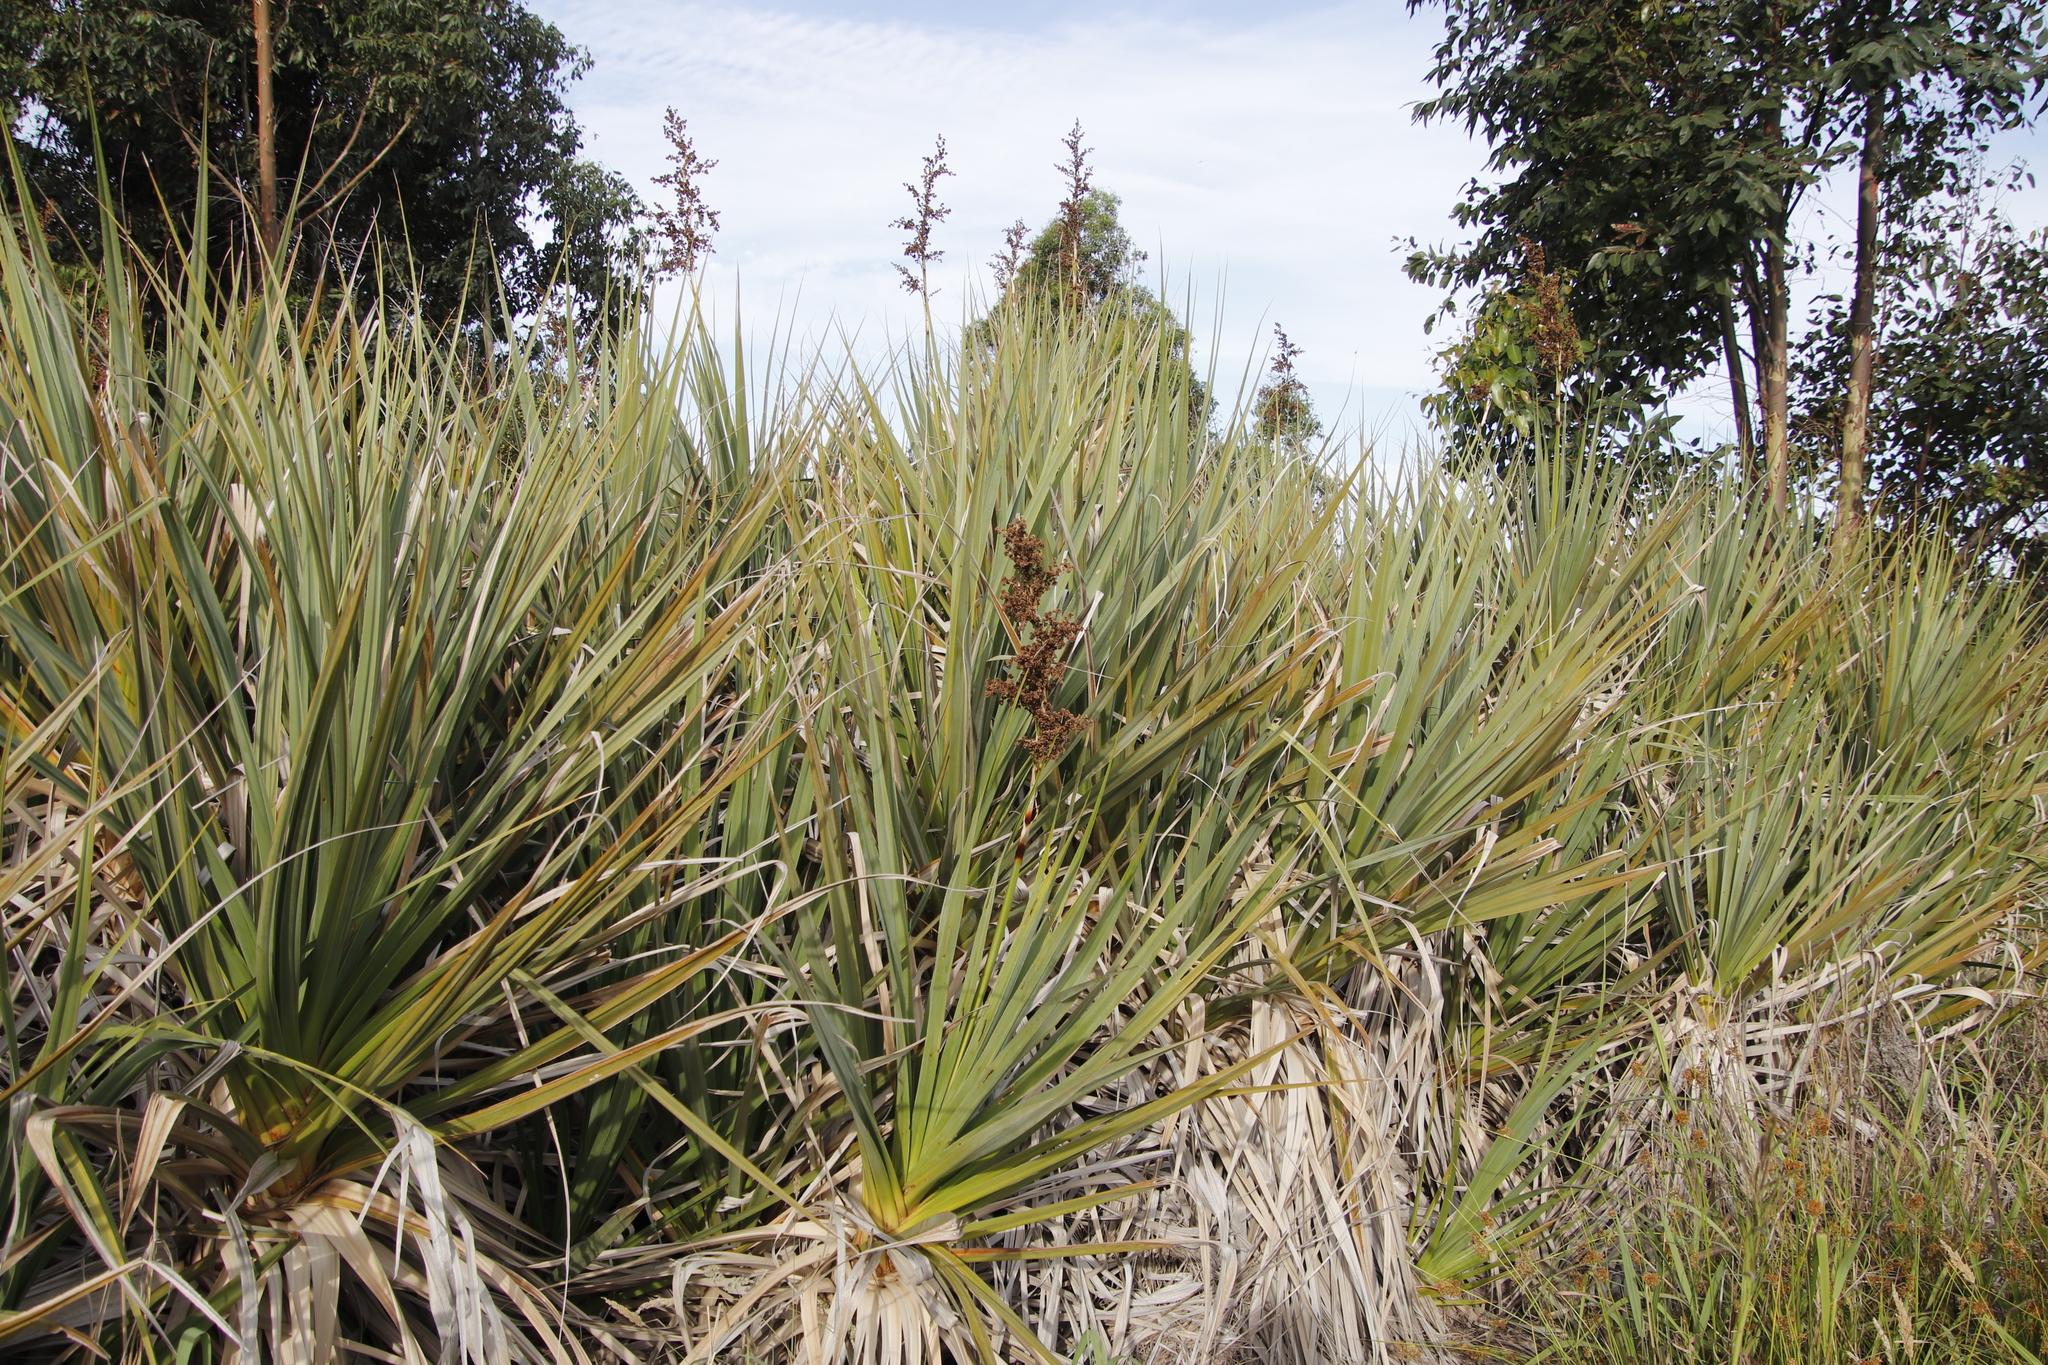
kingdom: Plantae
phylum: Tracheophyta
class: Liliopsida
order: Poales
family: Thurniaceae
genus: Prionium
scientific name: Prionium serratum
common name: Palmiet
